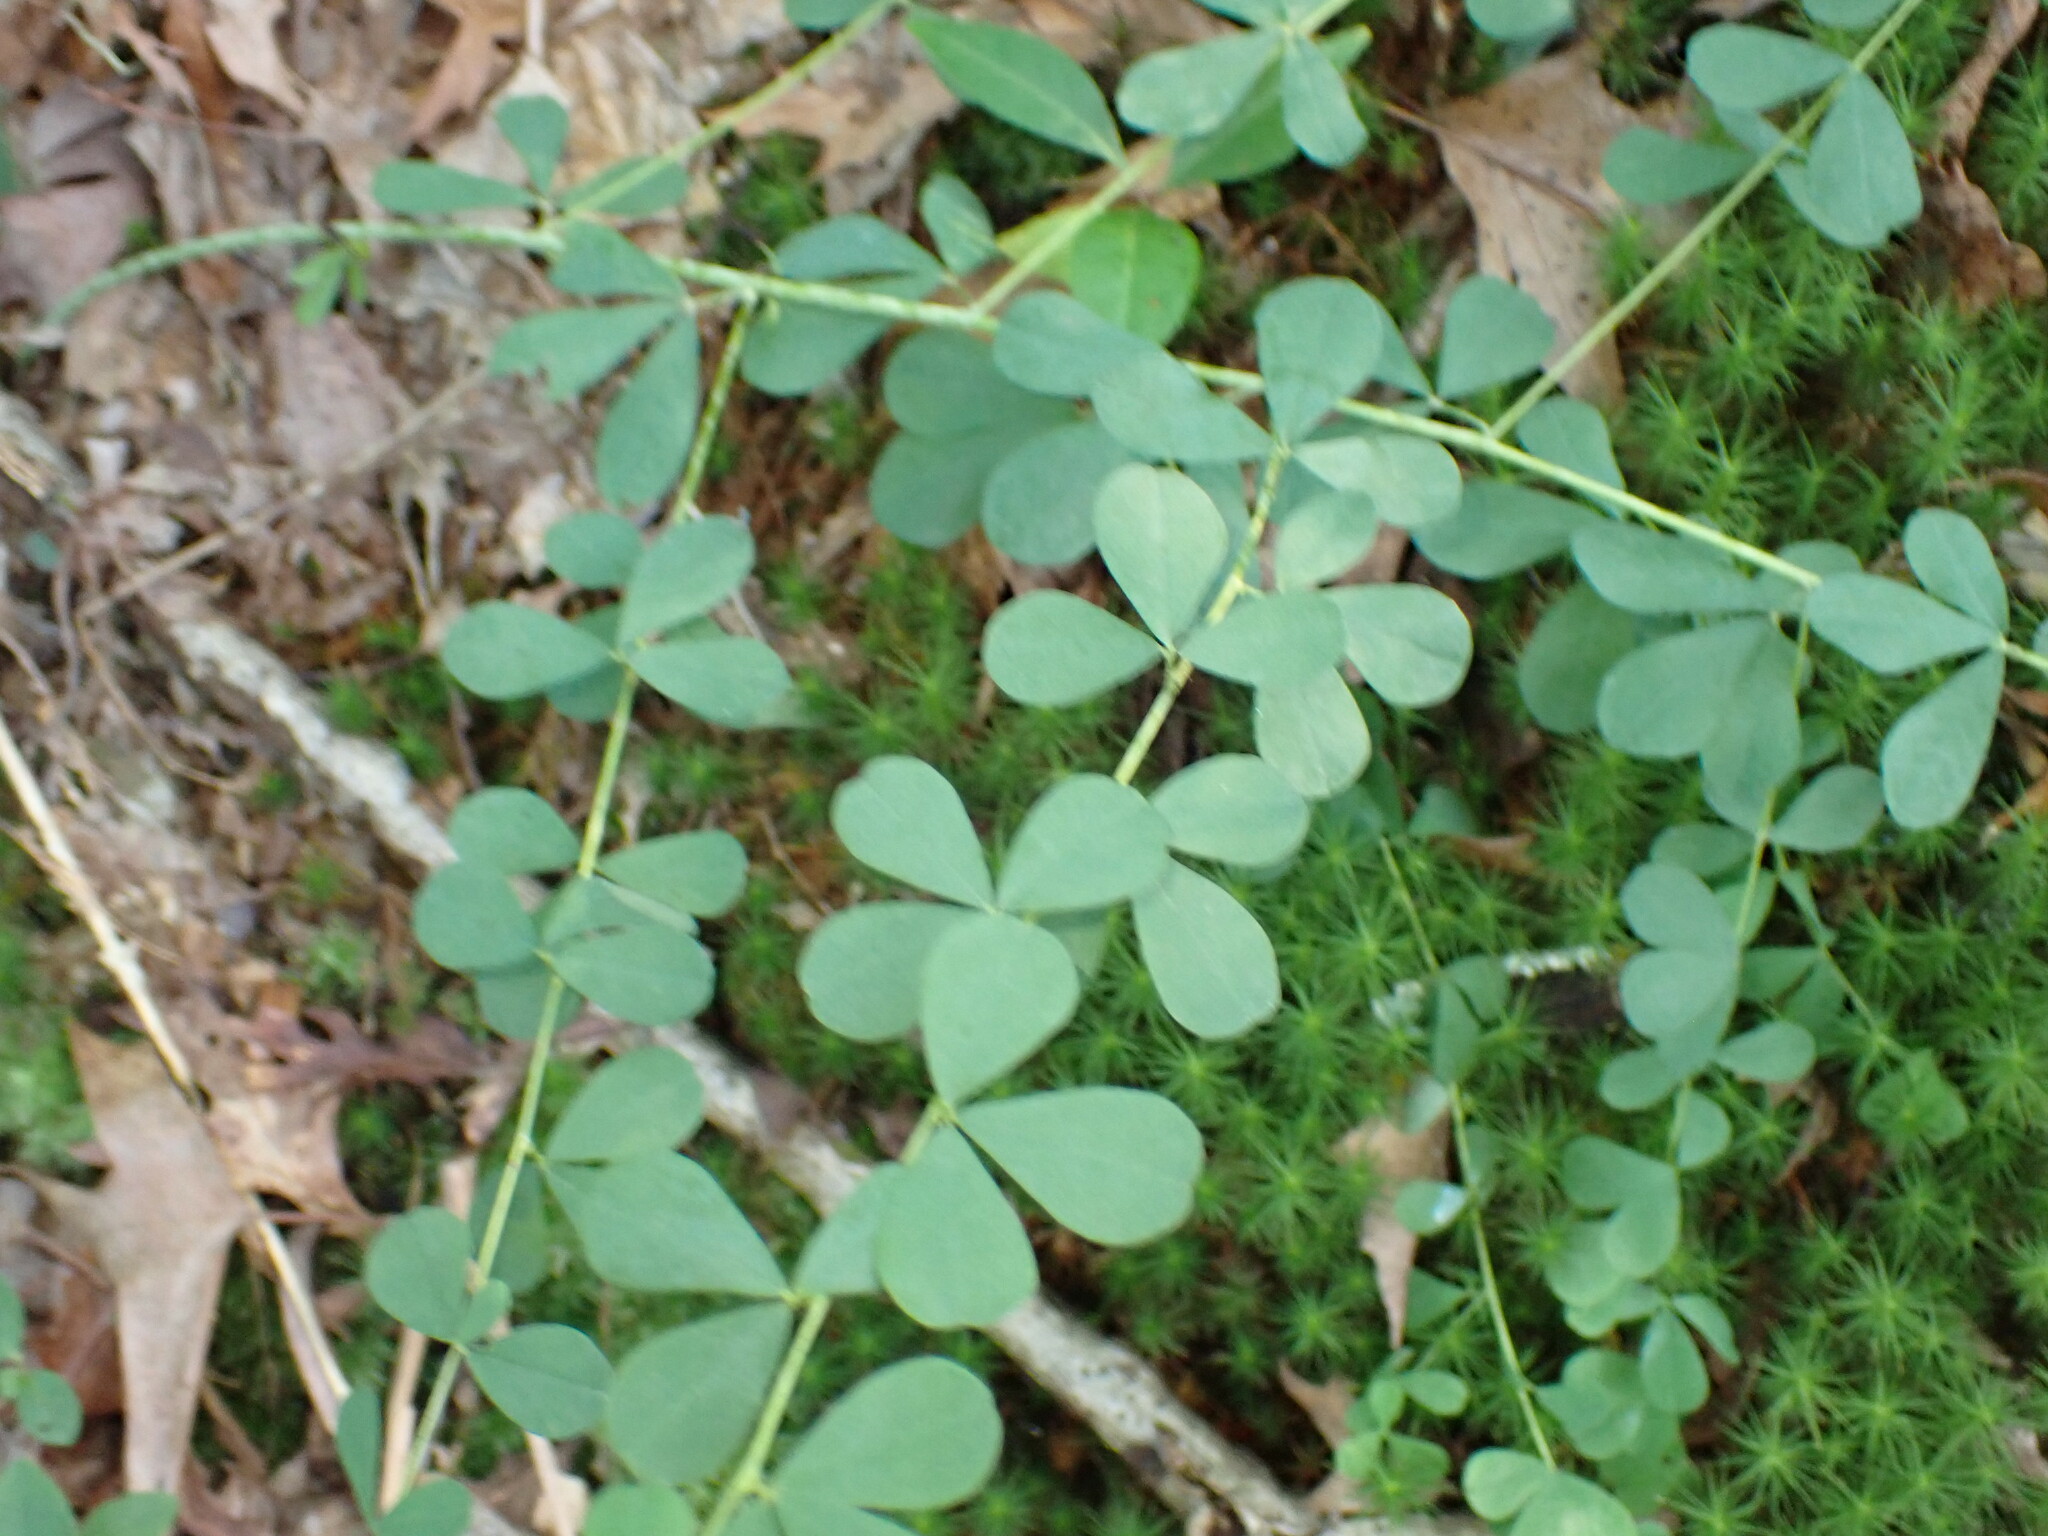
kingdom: Plantae
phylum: Tracheophyta
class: Magnoliopsida
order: Fabales
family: Fabaceae
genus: Baptisia
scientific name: Baptisia tinctoria
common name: Wild indigo
